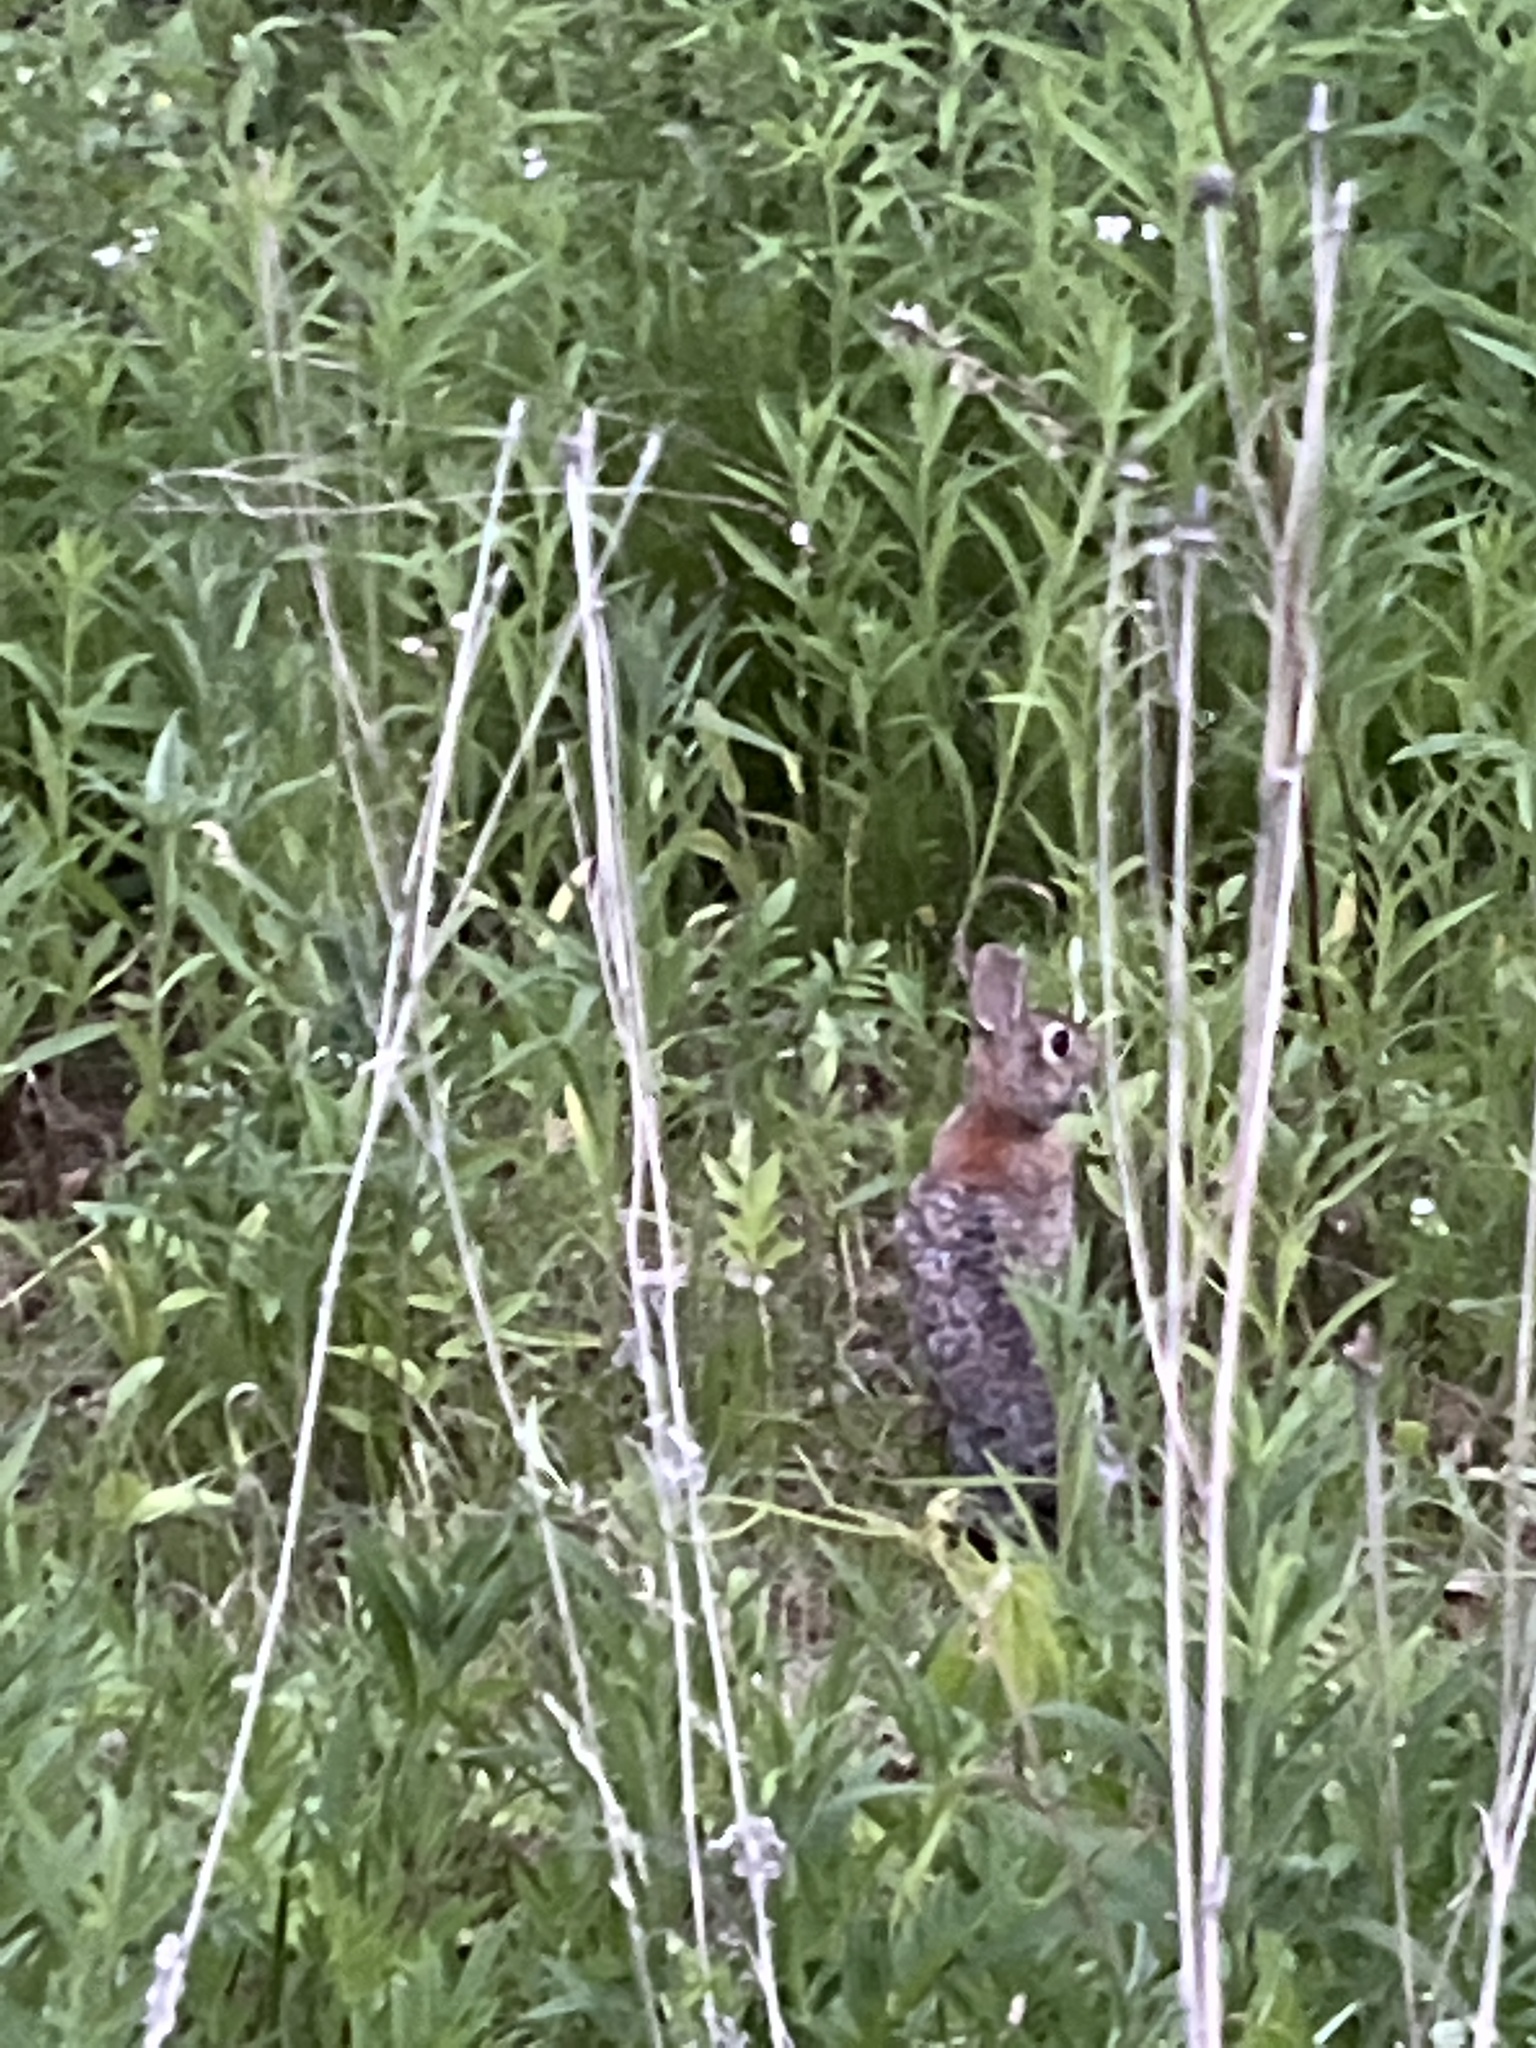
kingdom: Animalia
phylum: Chordata
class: Mammalia
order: Lagomorpha
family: Leporidae
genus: Sylvilagus
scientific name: Sylvilagus floridanus
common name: Eastern cottontail
